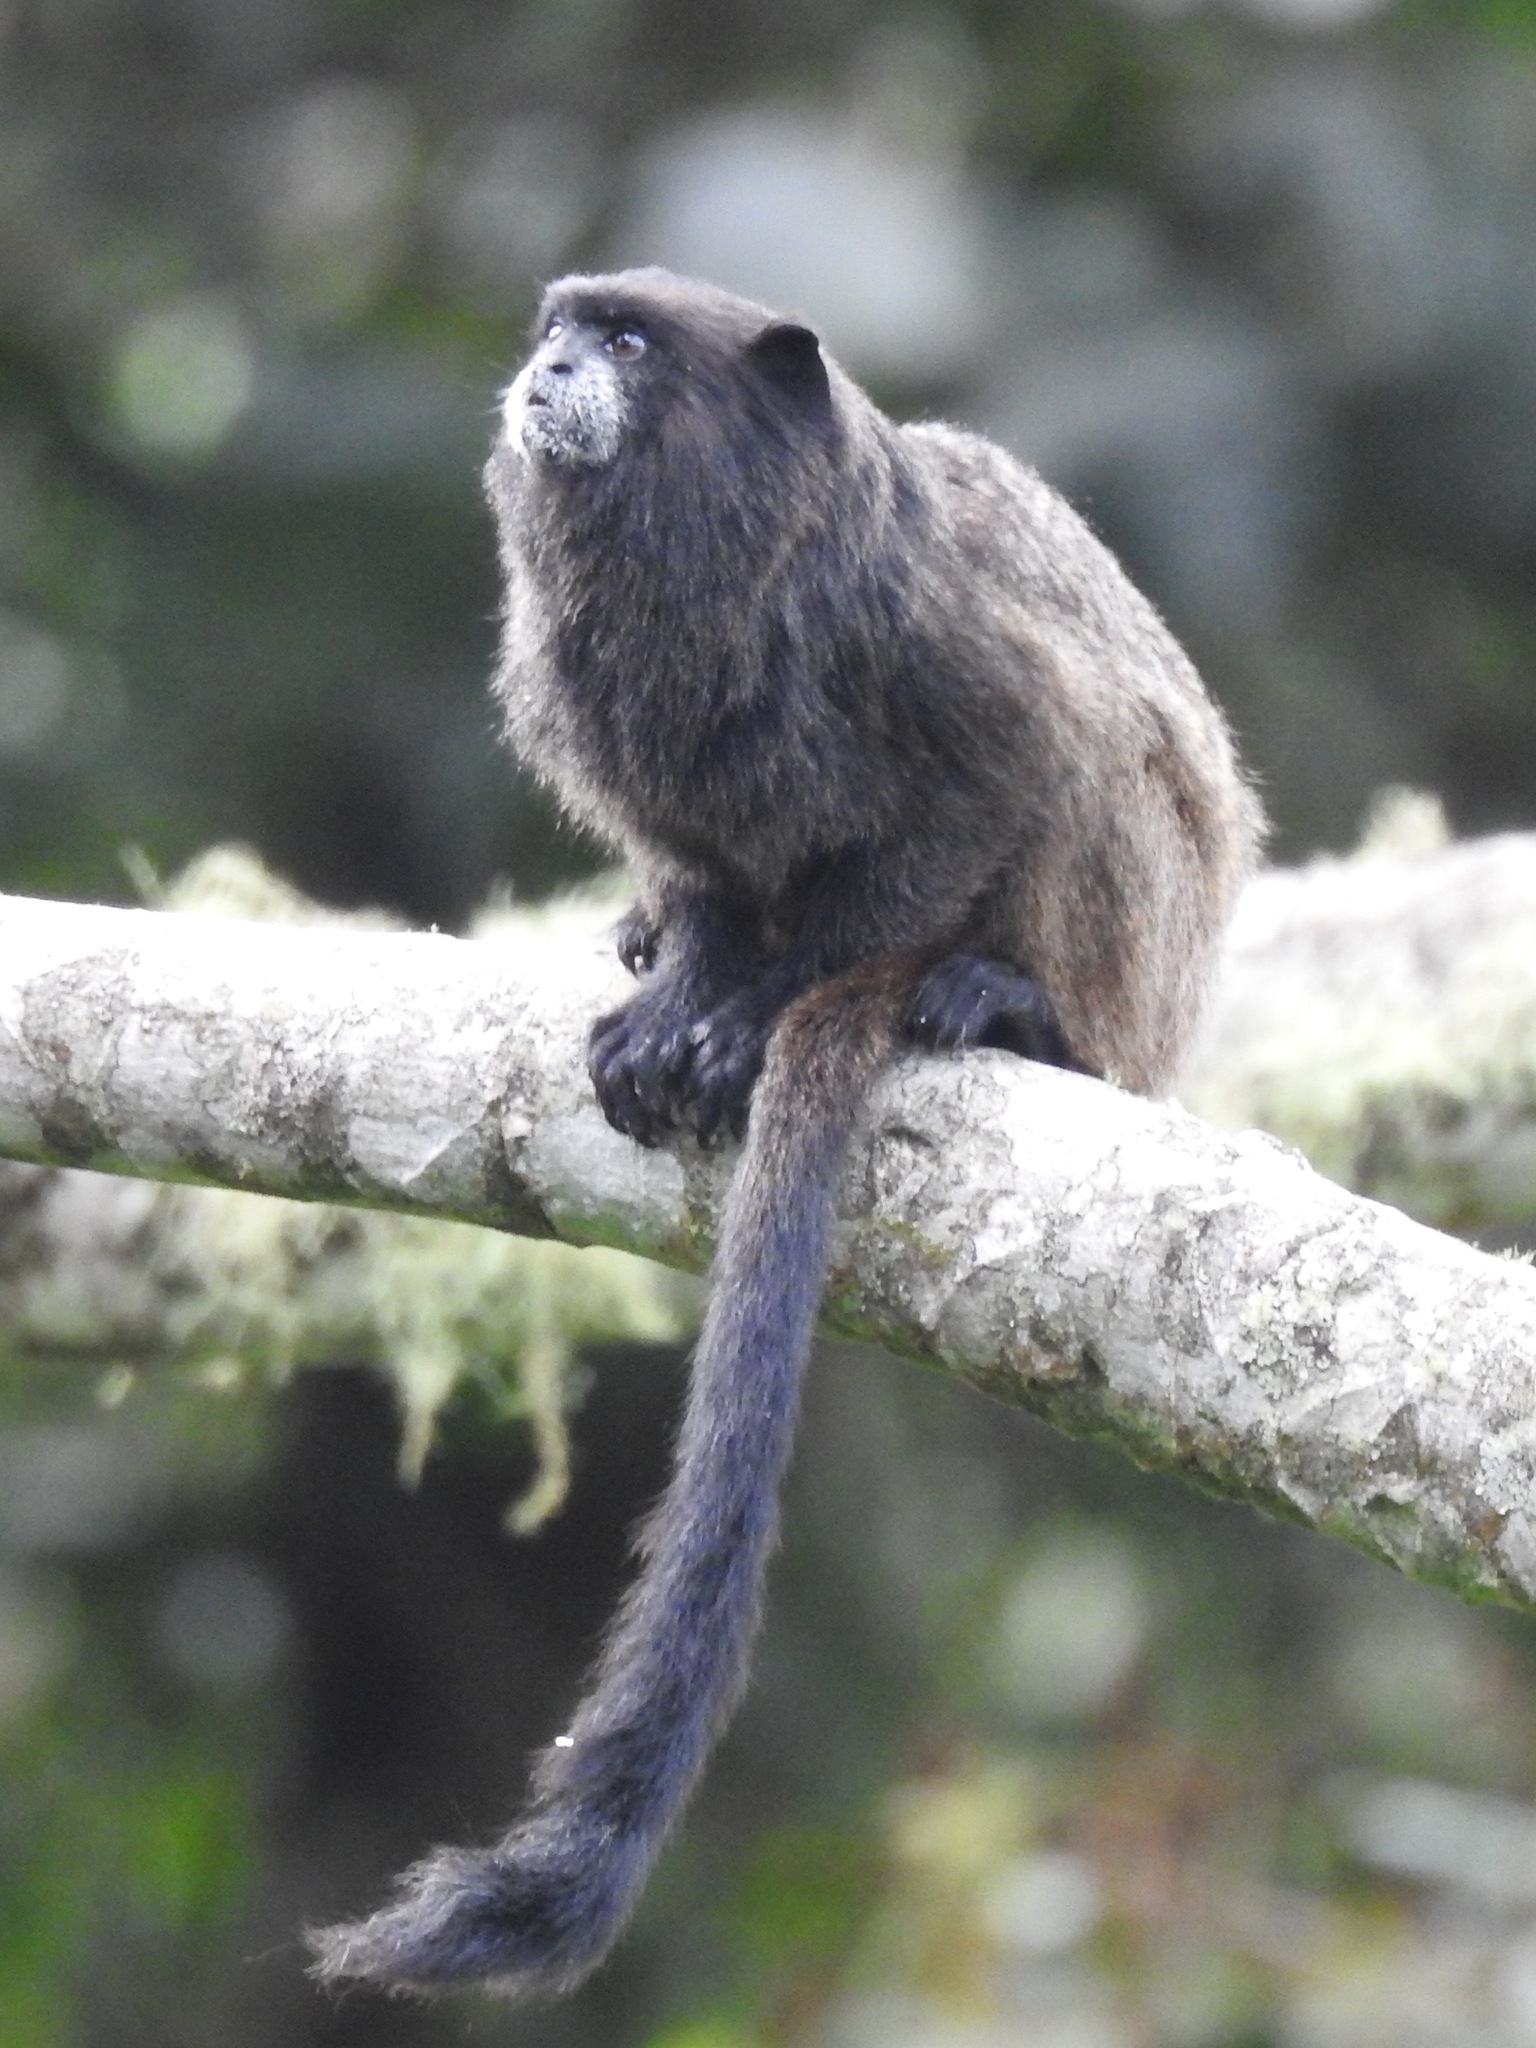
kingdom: Animalia
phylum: Chordata
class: Mammalia
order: Primates
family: Callitrichidae
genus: Leontocebus
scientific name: Leontocebus nigricollis
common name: Black-mantled tamarin
